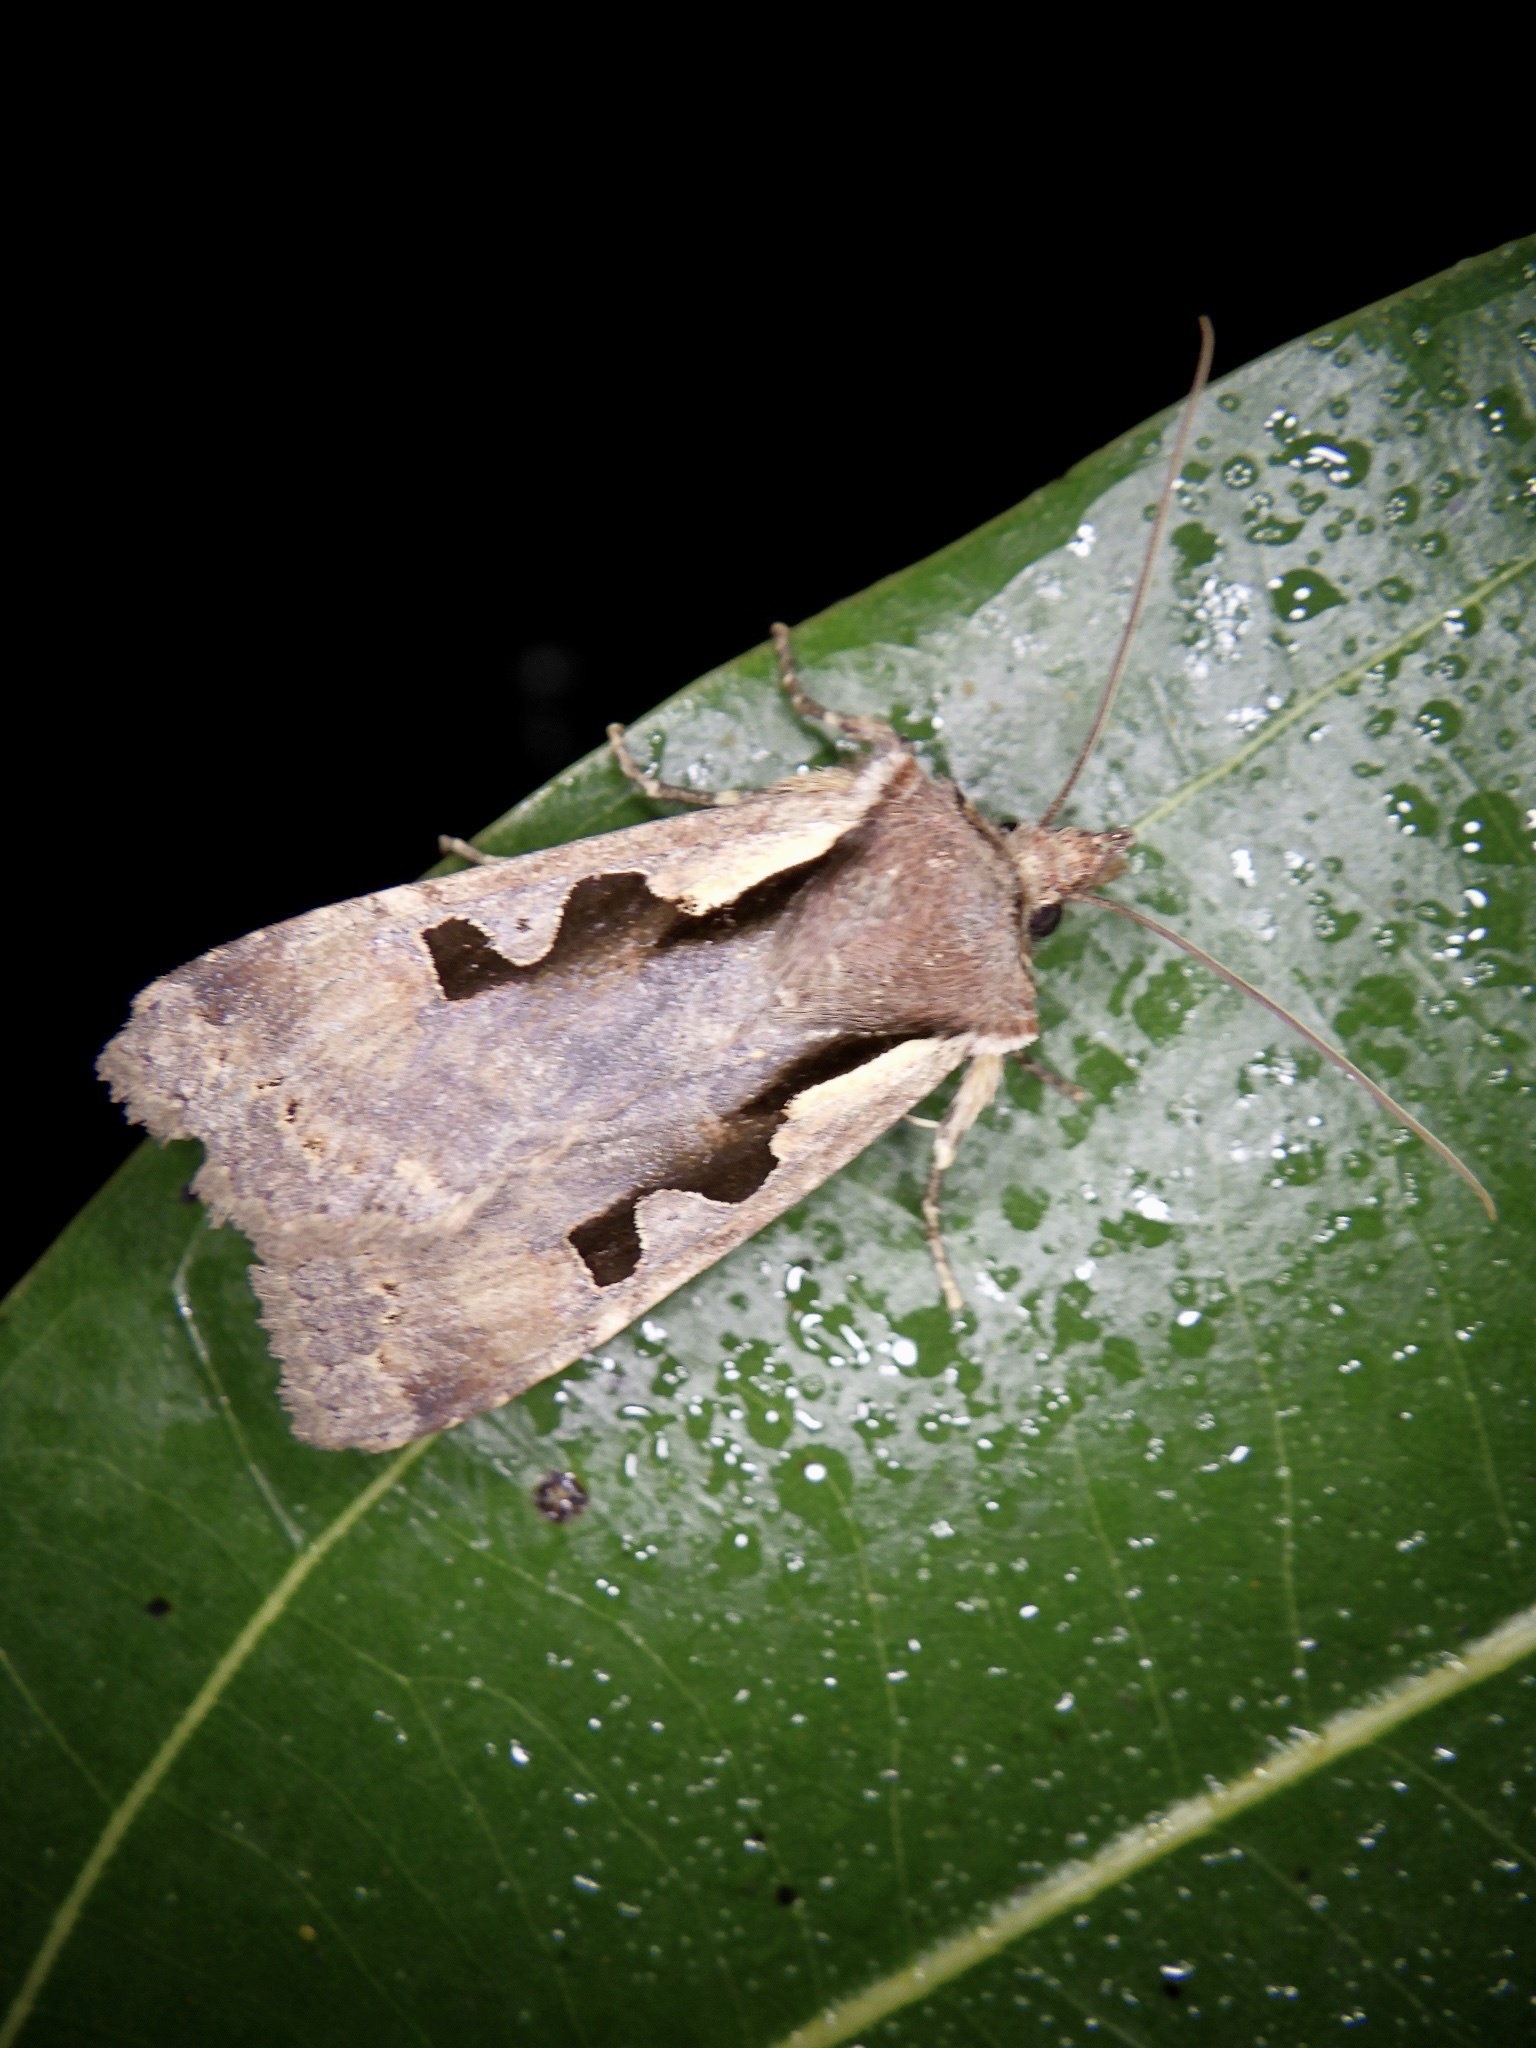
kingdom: Animalia
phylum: Arthropoda
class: Insecta
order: Lepidoptera
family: Noctuidae
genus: Sugitania
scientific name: Sugitania lepida
